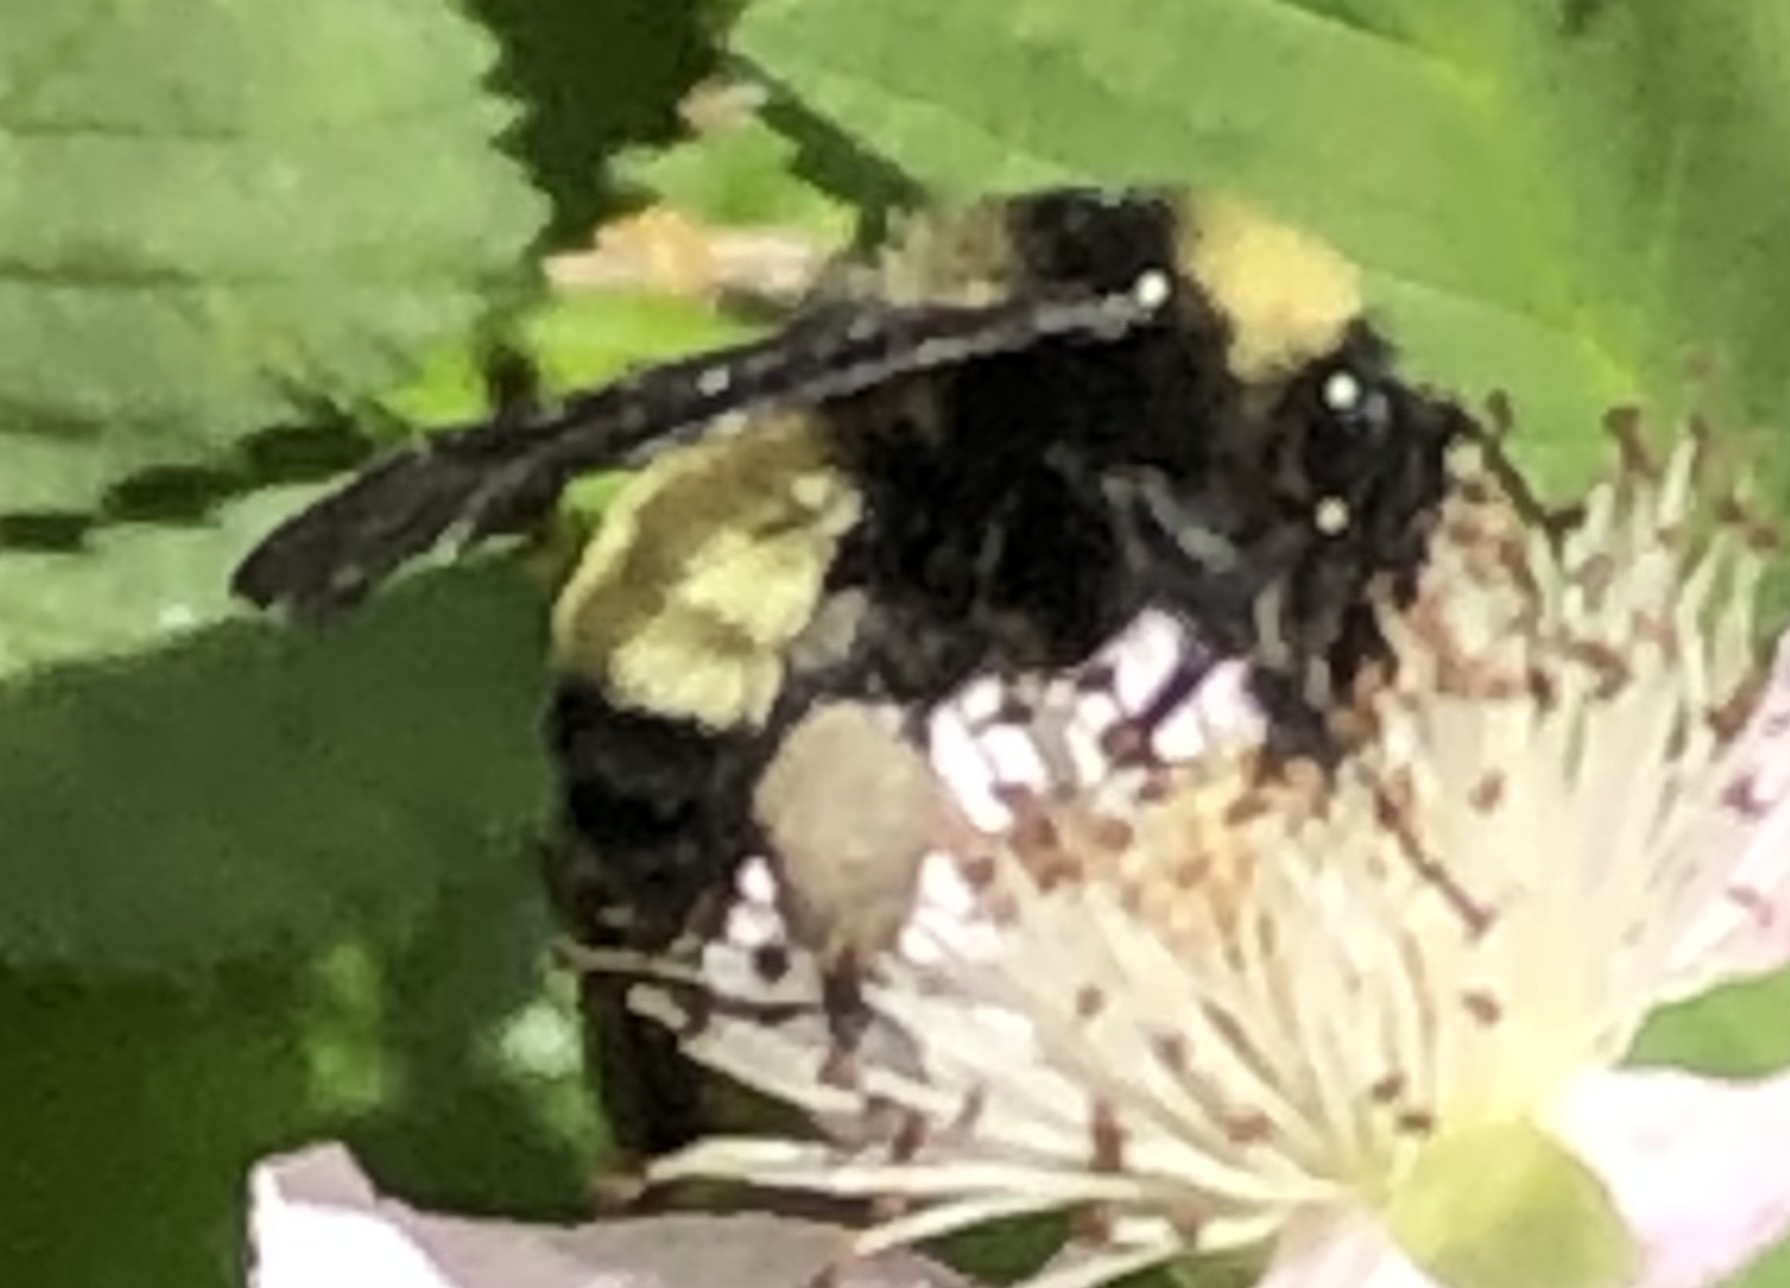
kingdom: Animalia
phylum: Arthropoda
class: Insecta
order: Hymenoptera
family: Apidae
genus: Bombus
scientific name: Bombus pensylvanicus
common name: Bumble bee
